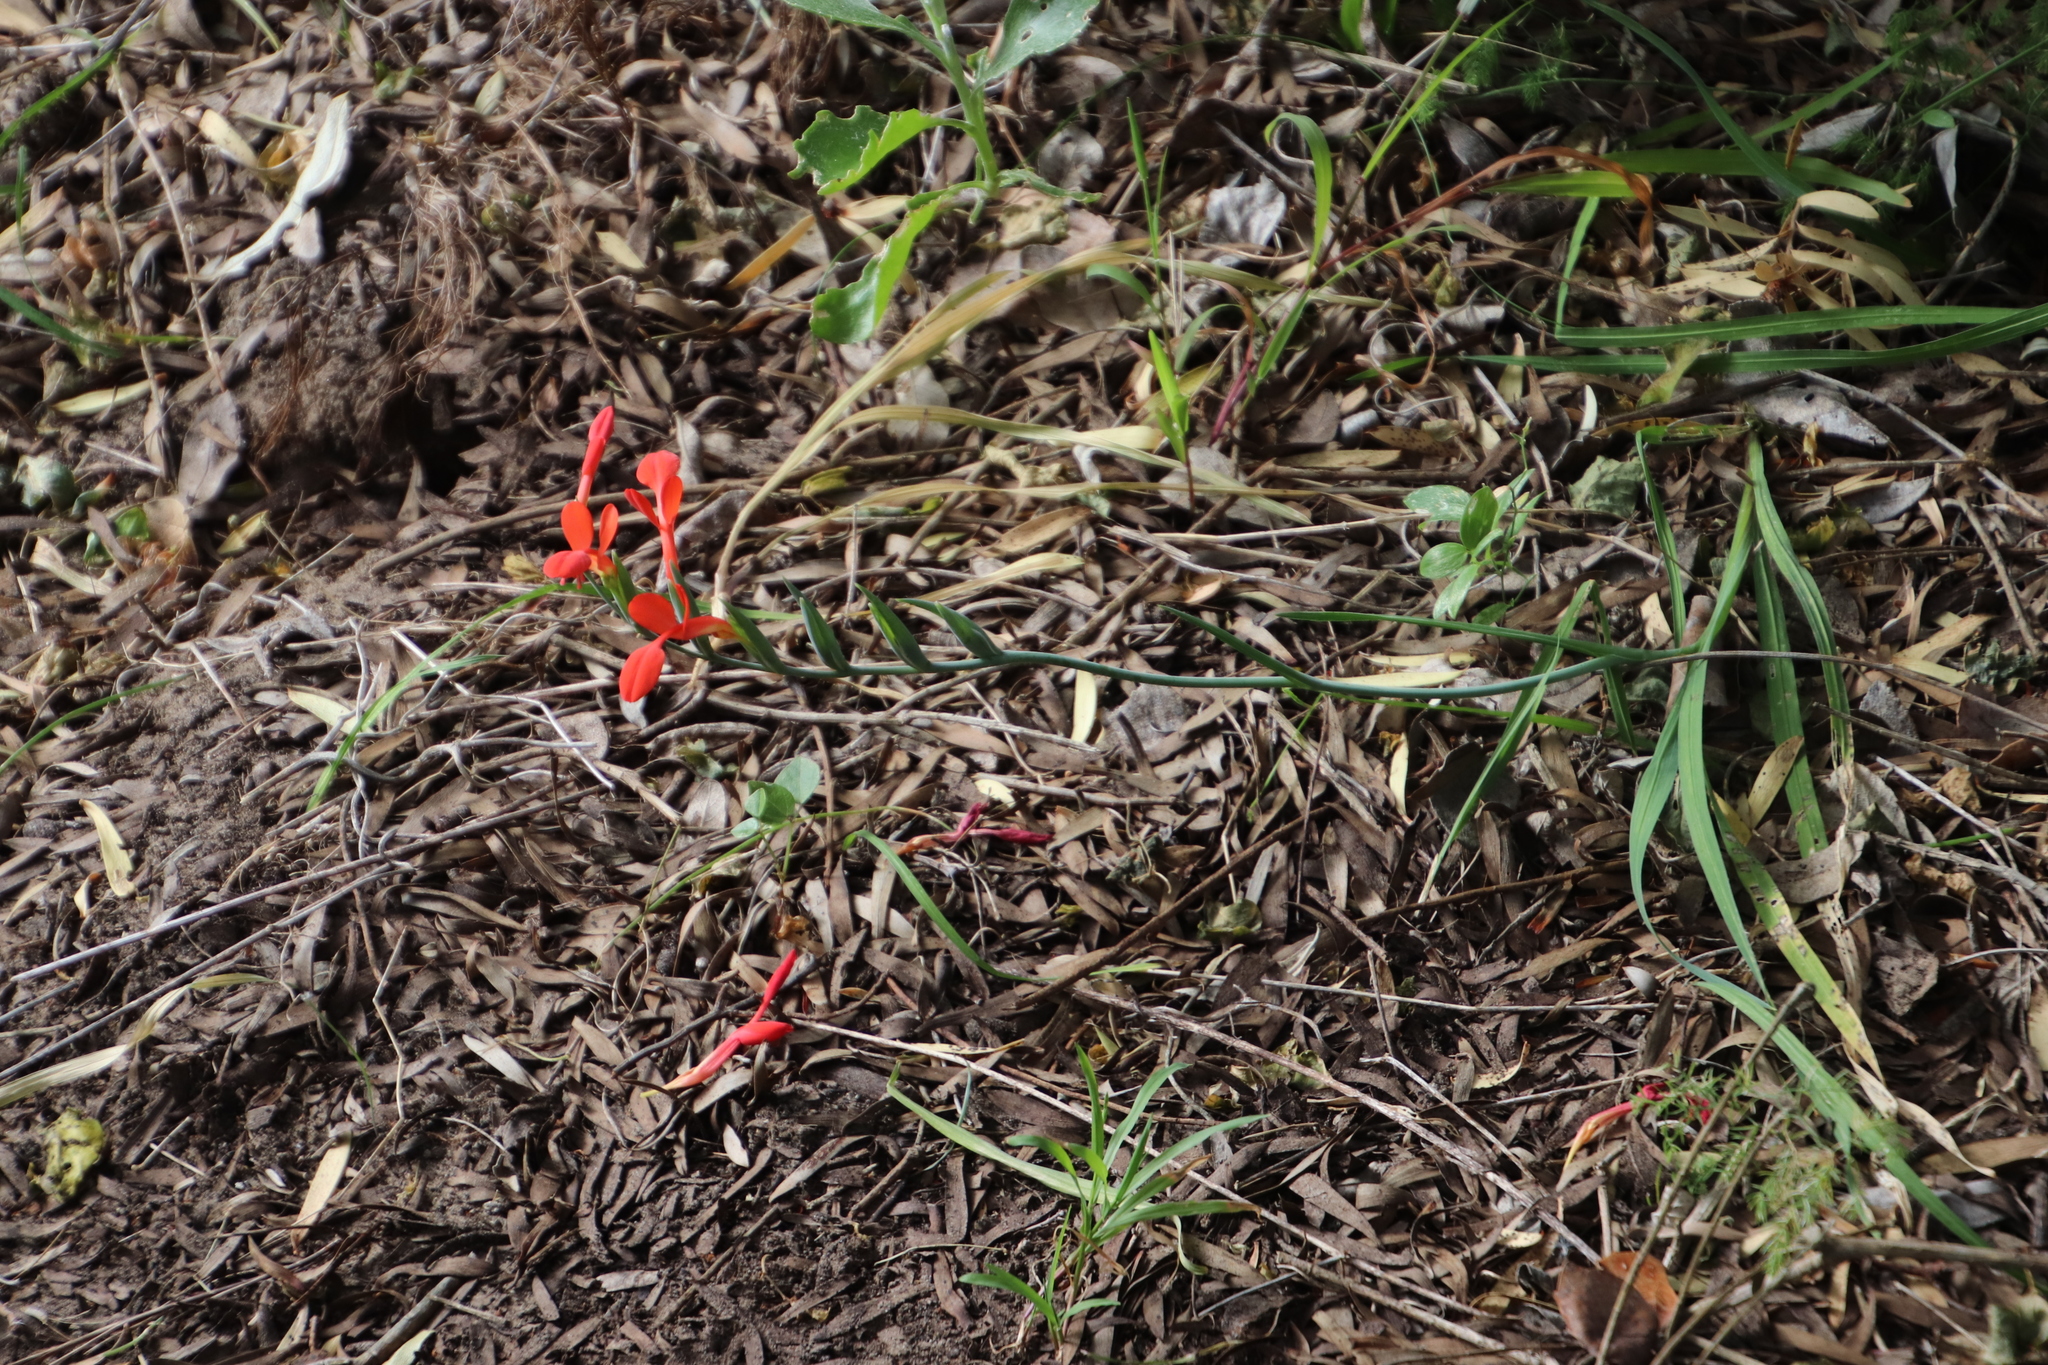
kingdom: Plantae
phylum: Tracheophyta
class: Liliopsida
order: Asparagales
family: Iridaceae
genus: Gladiolus
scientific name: Gladiolus cunonius
